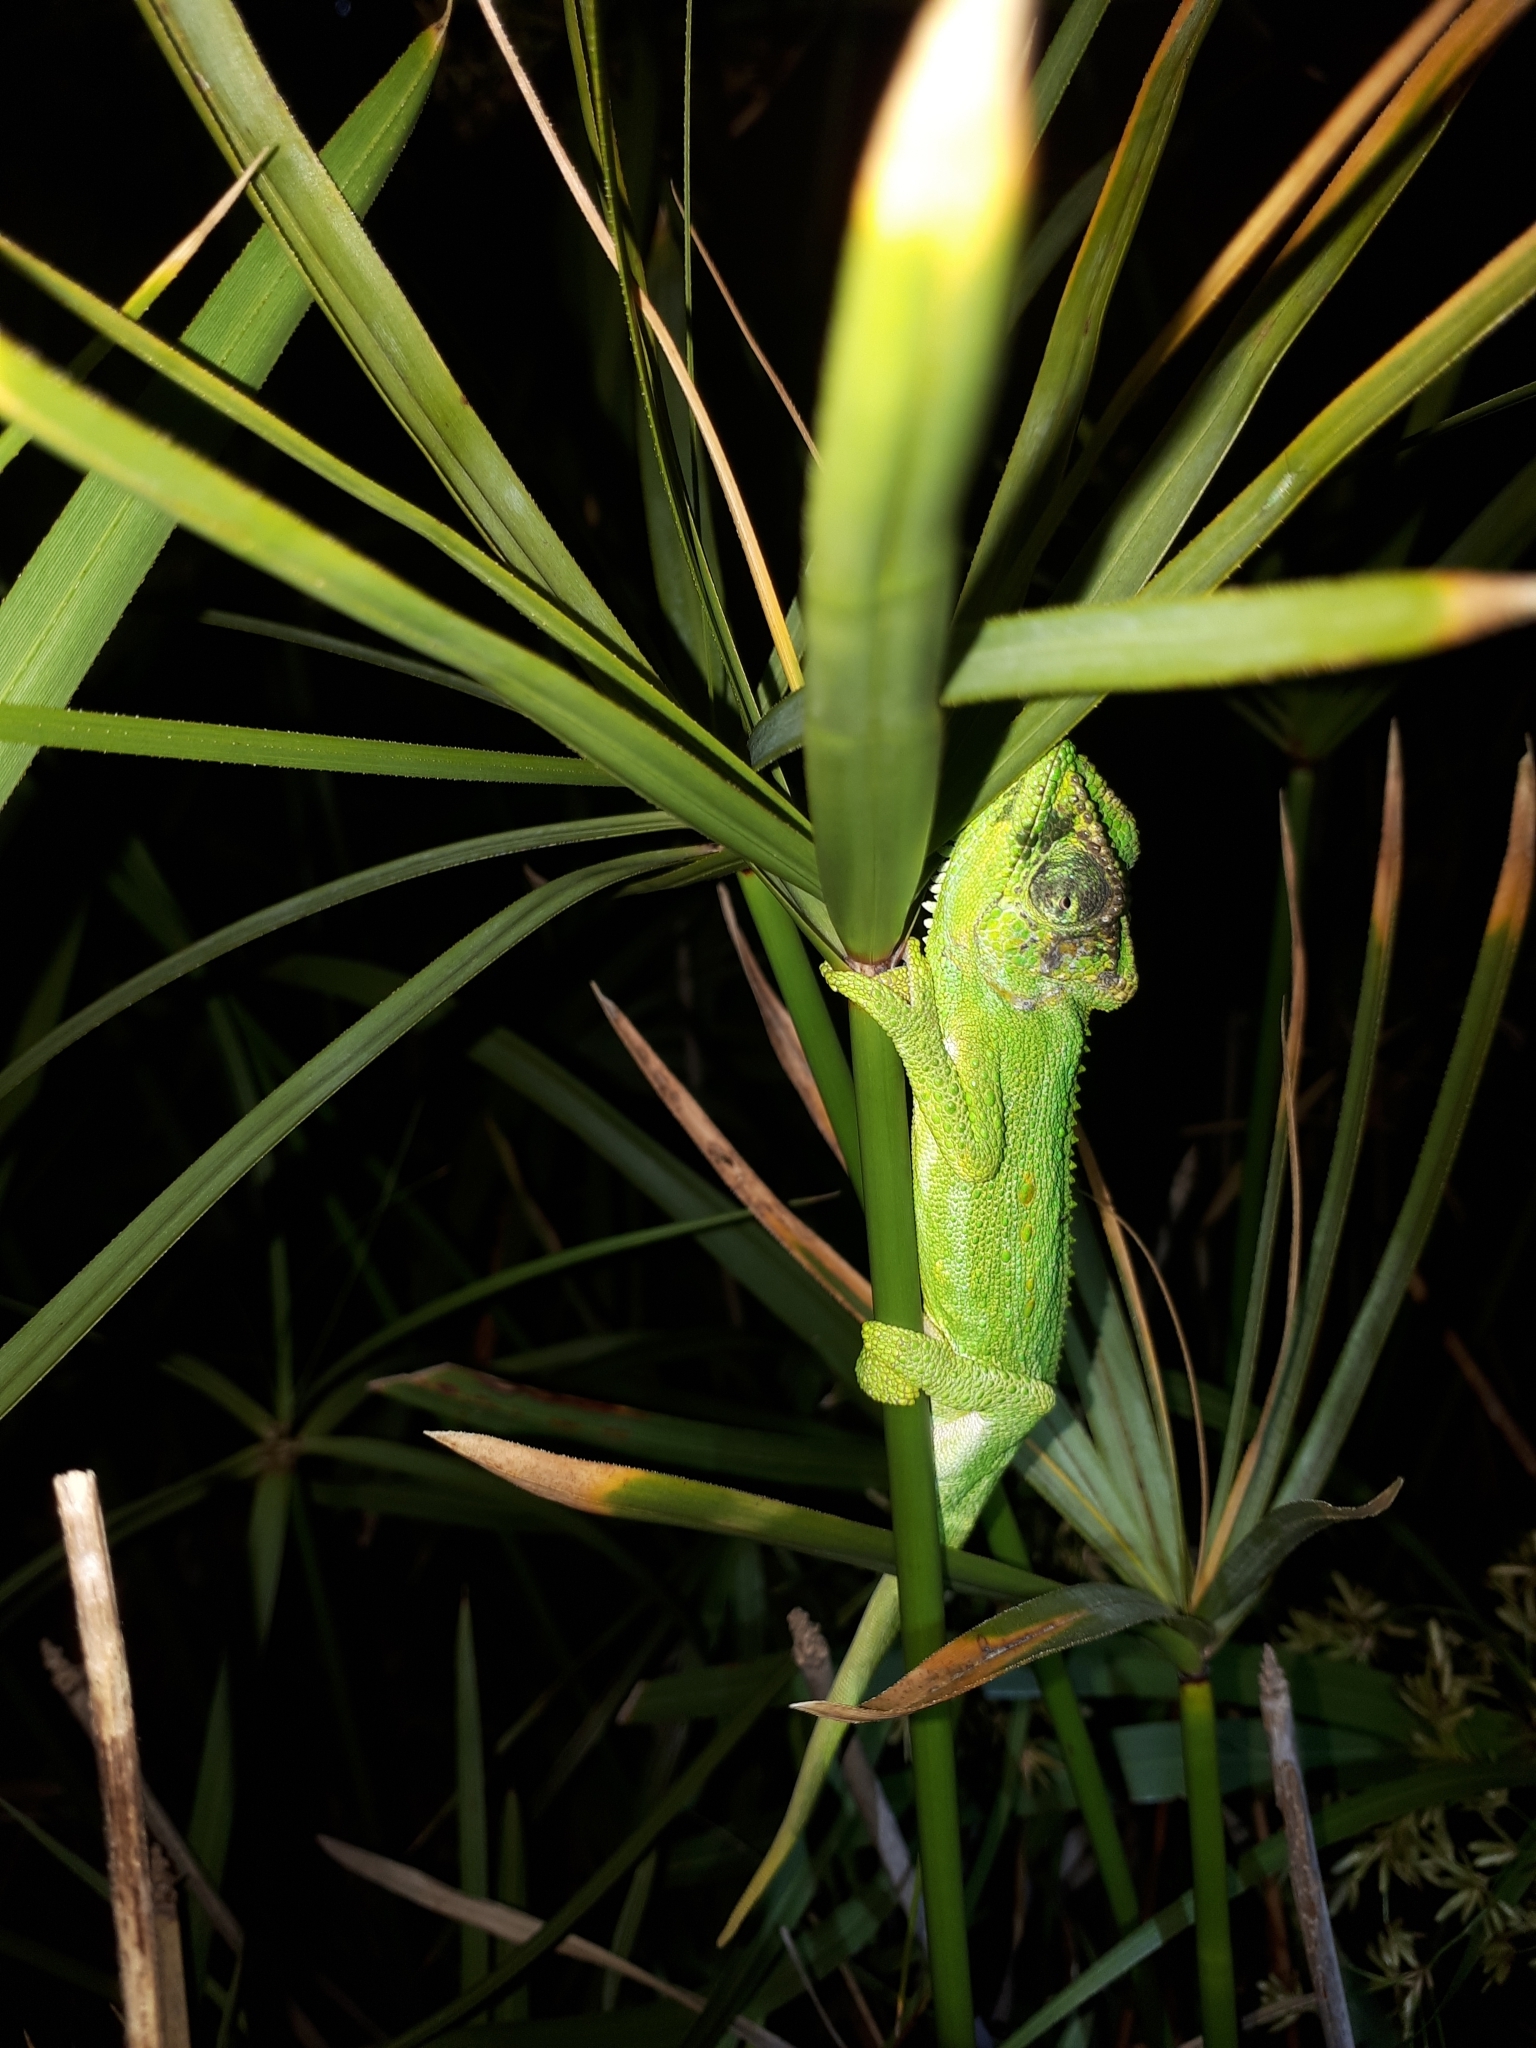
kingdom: Animalia
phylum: Chordata
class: Squamata
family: Chamaeleonidae
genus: Bradypodion
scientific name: Bradypodion pumilum
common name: Cape dwarf chameleon
